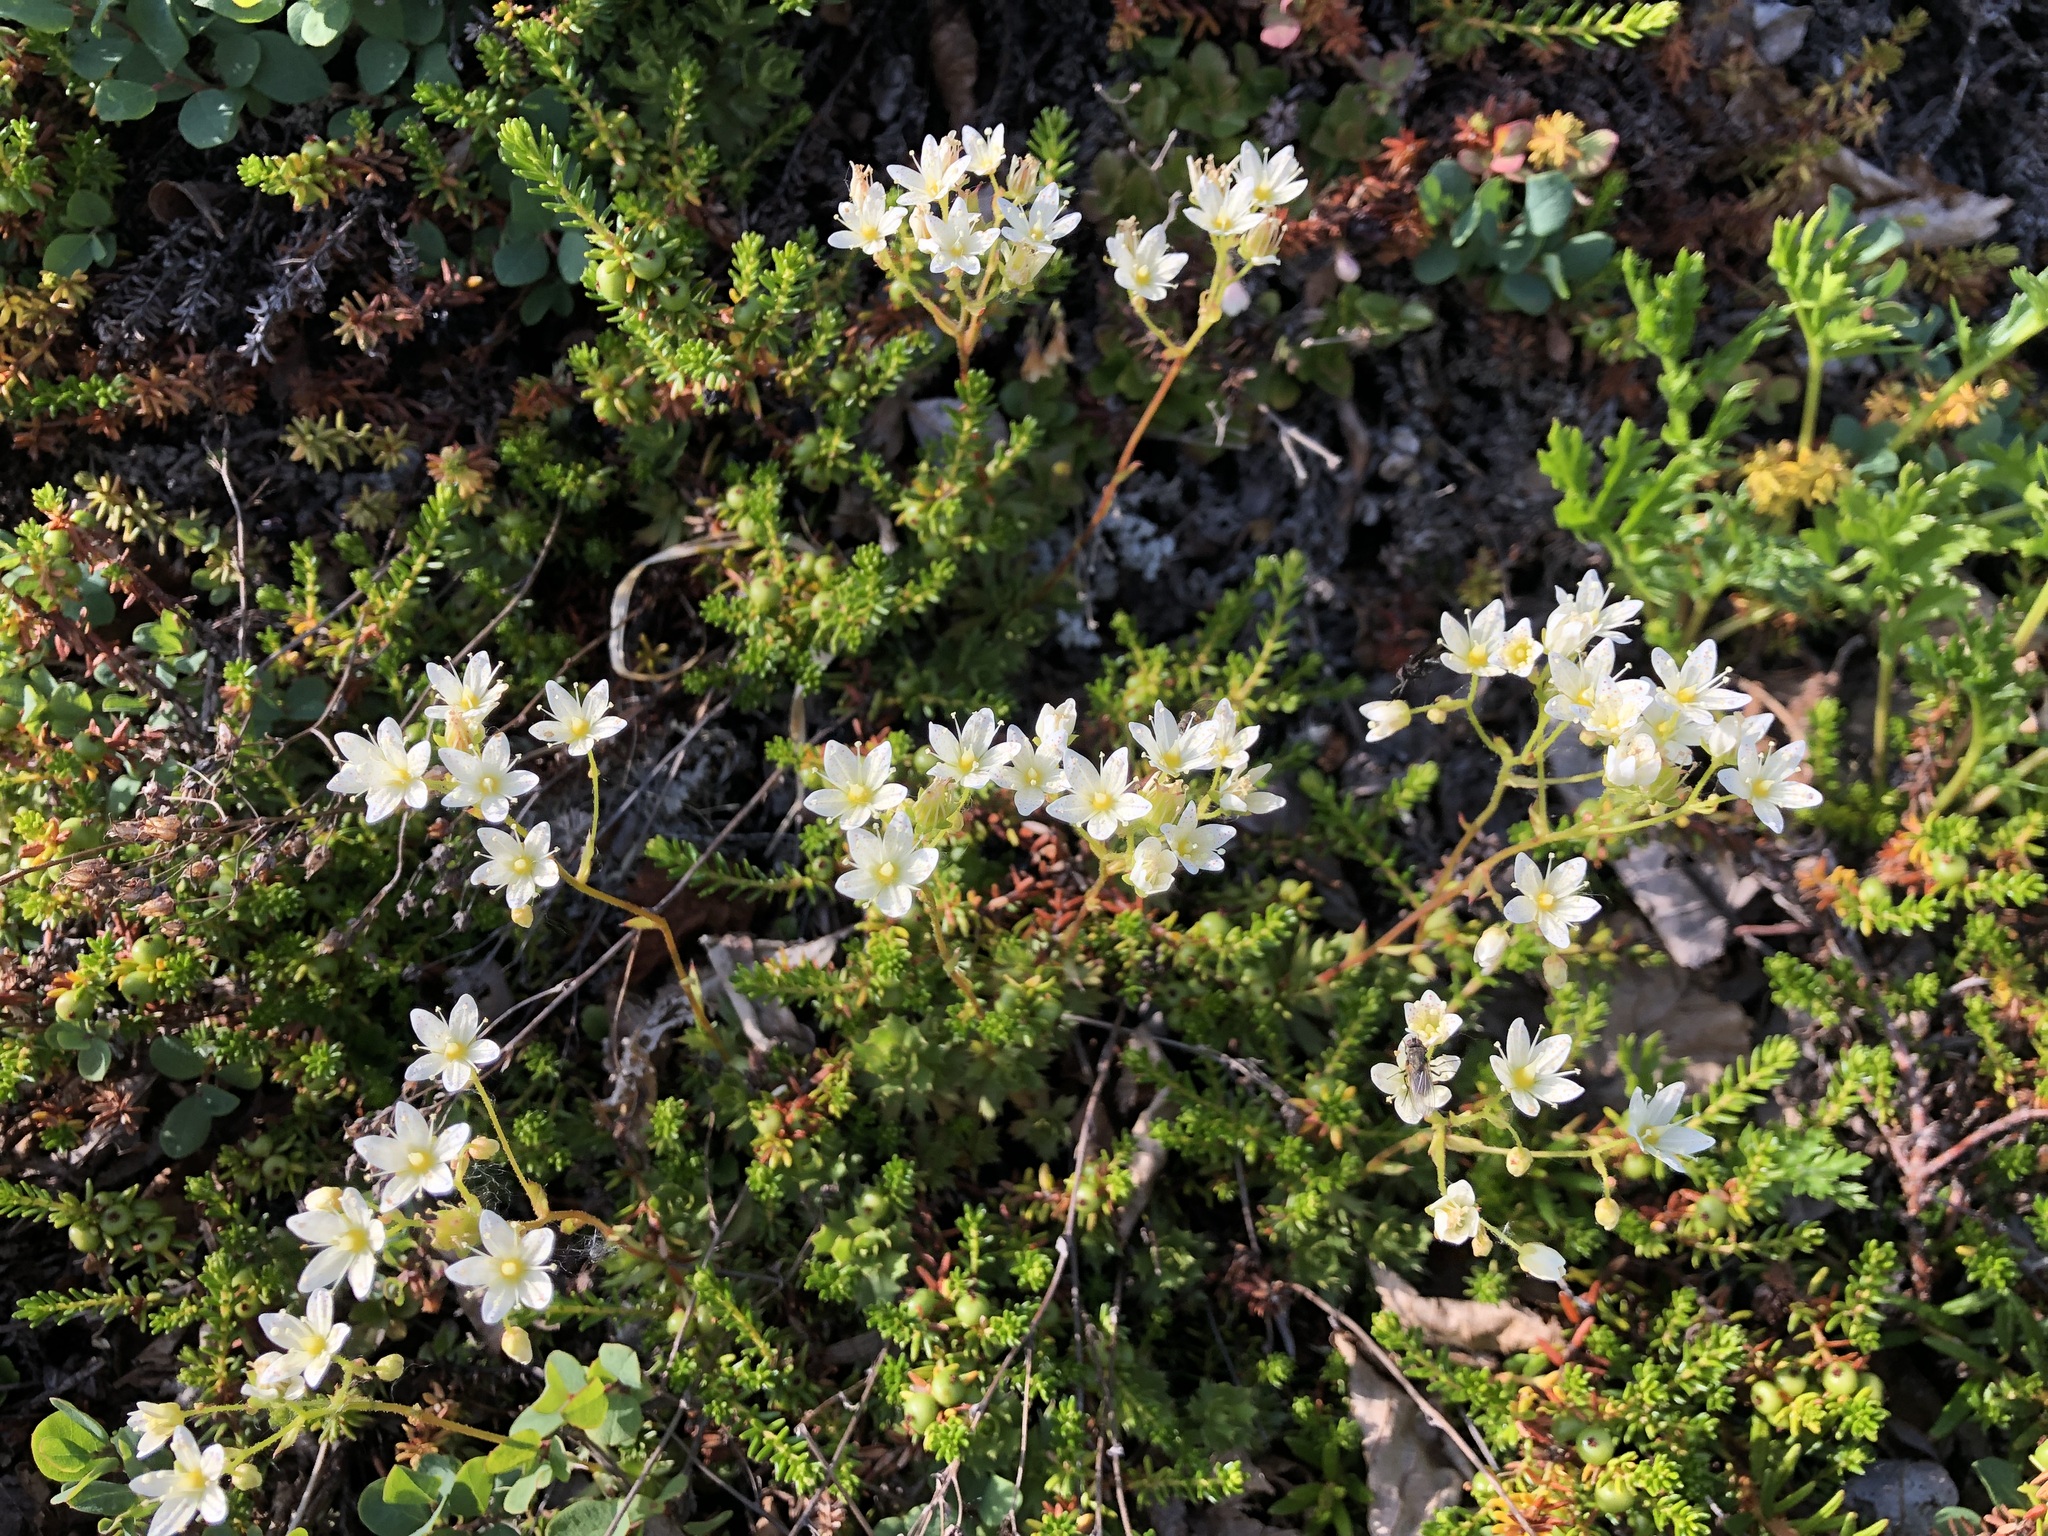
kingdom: Plantae
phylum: Tracheophyta
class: Magnoliopsida
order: Saxifragales
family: Saxifragaceae
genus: Saxifraga
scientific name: Saxifraga tricuspidata
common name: Prickly saxifrage
